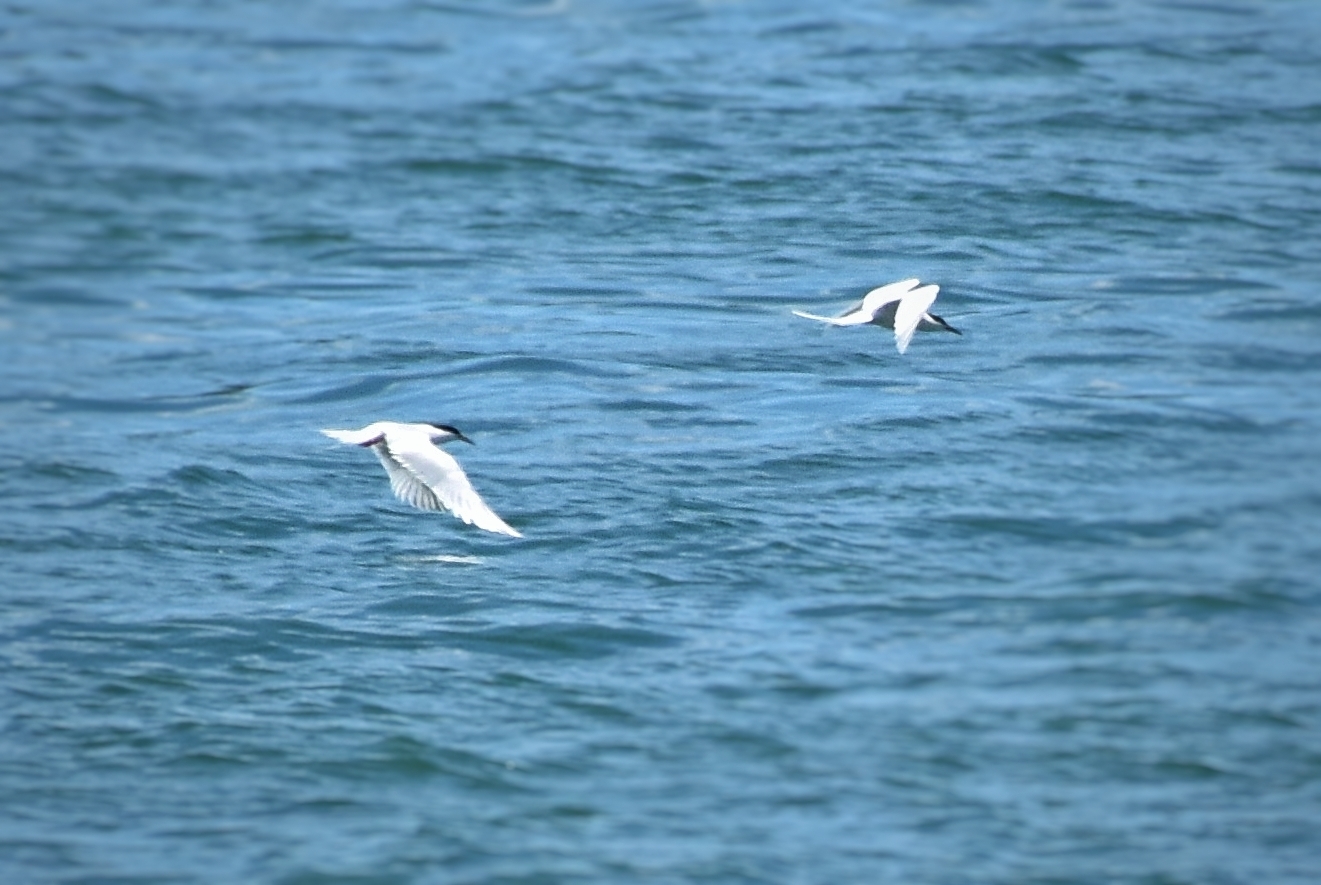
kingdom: Animalia
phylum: Chordata
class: Aves
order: Charadriiformes
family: Laridae
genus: Sterna
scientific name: Sterna dougallii
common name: Roseate tern
